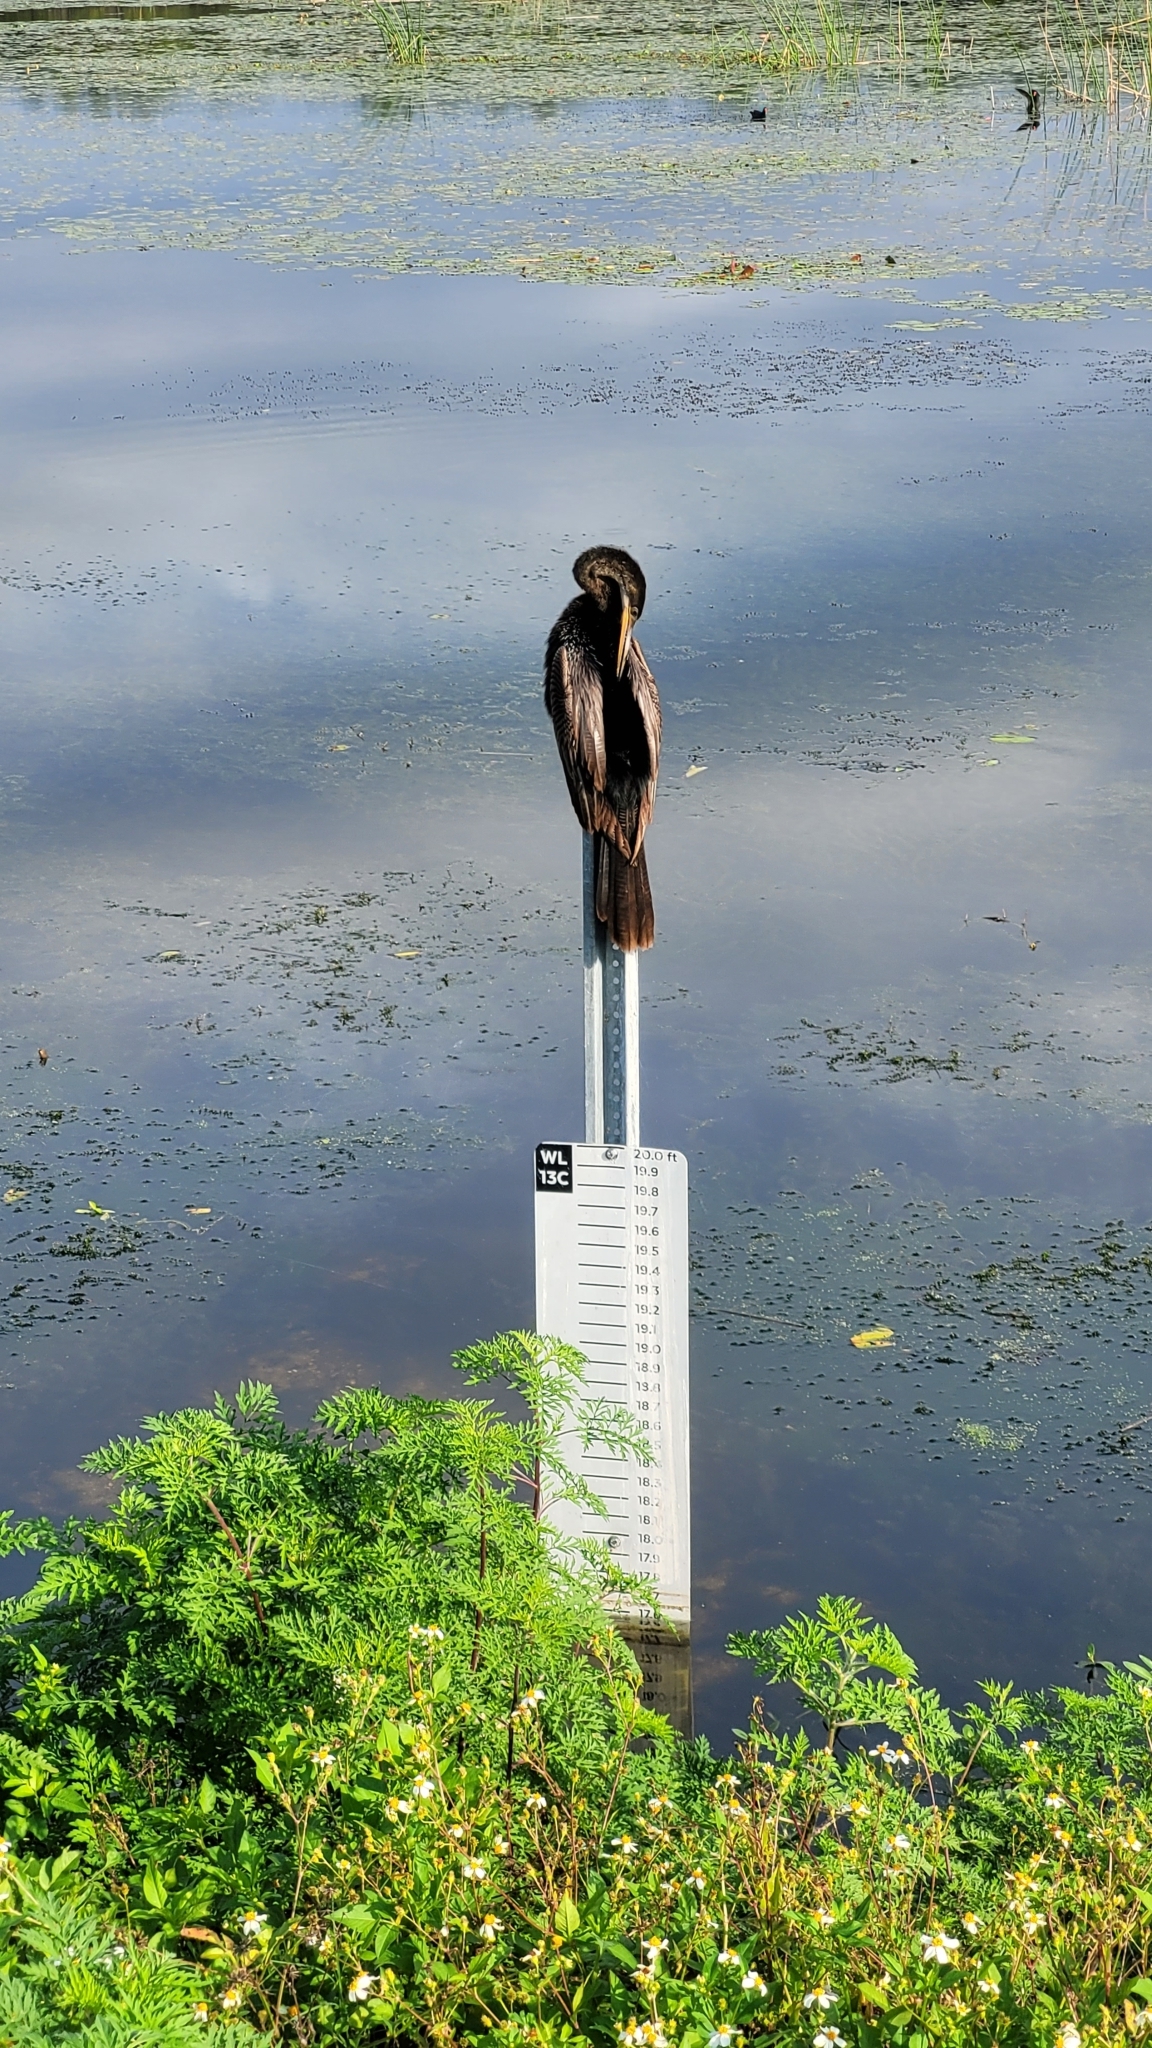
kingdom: Animalia
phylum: Chordata
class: Aves
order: Suliformes
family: Anhingidae
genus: Anhinga
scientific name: Anhinga anhinga
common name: Anhinga
